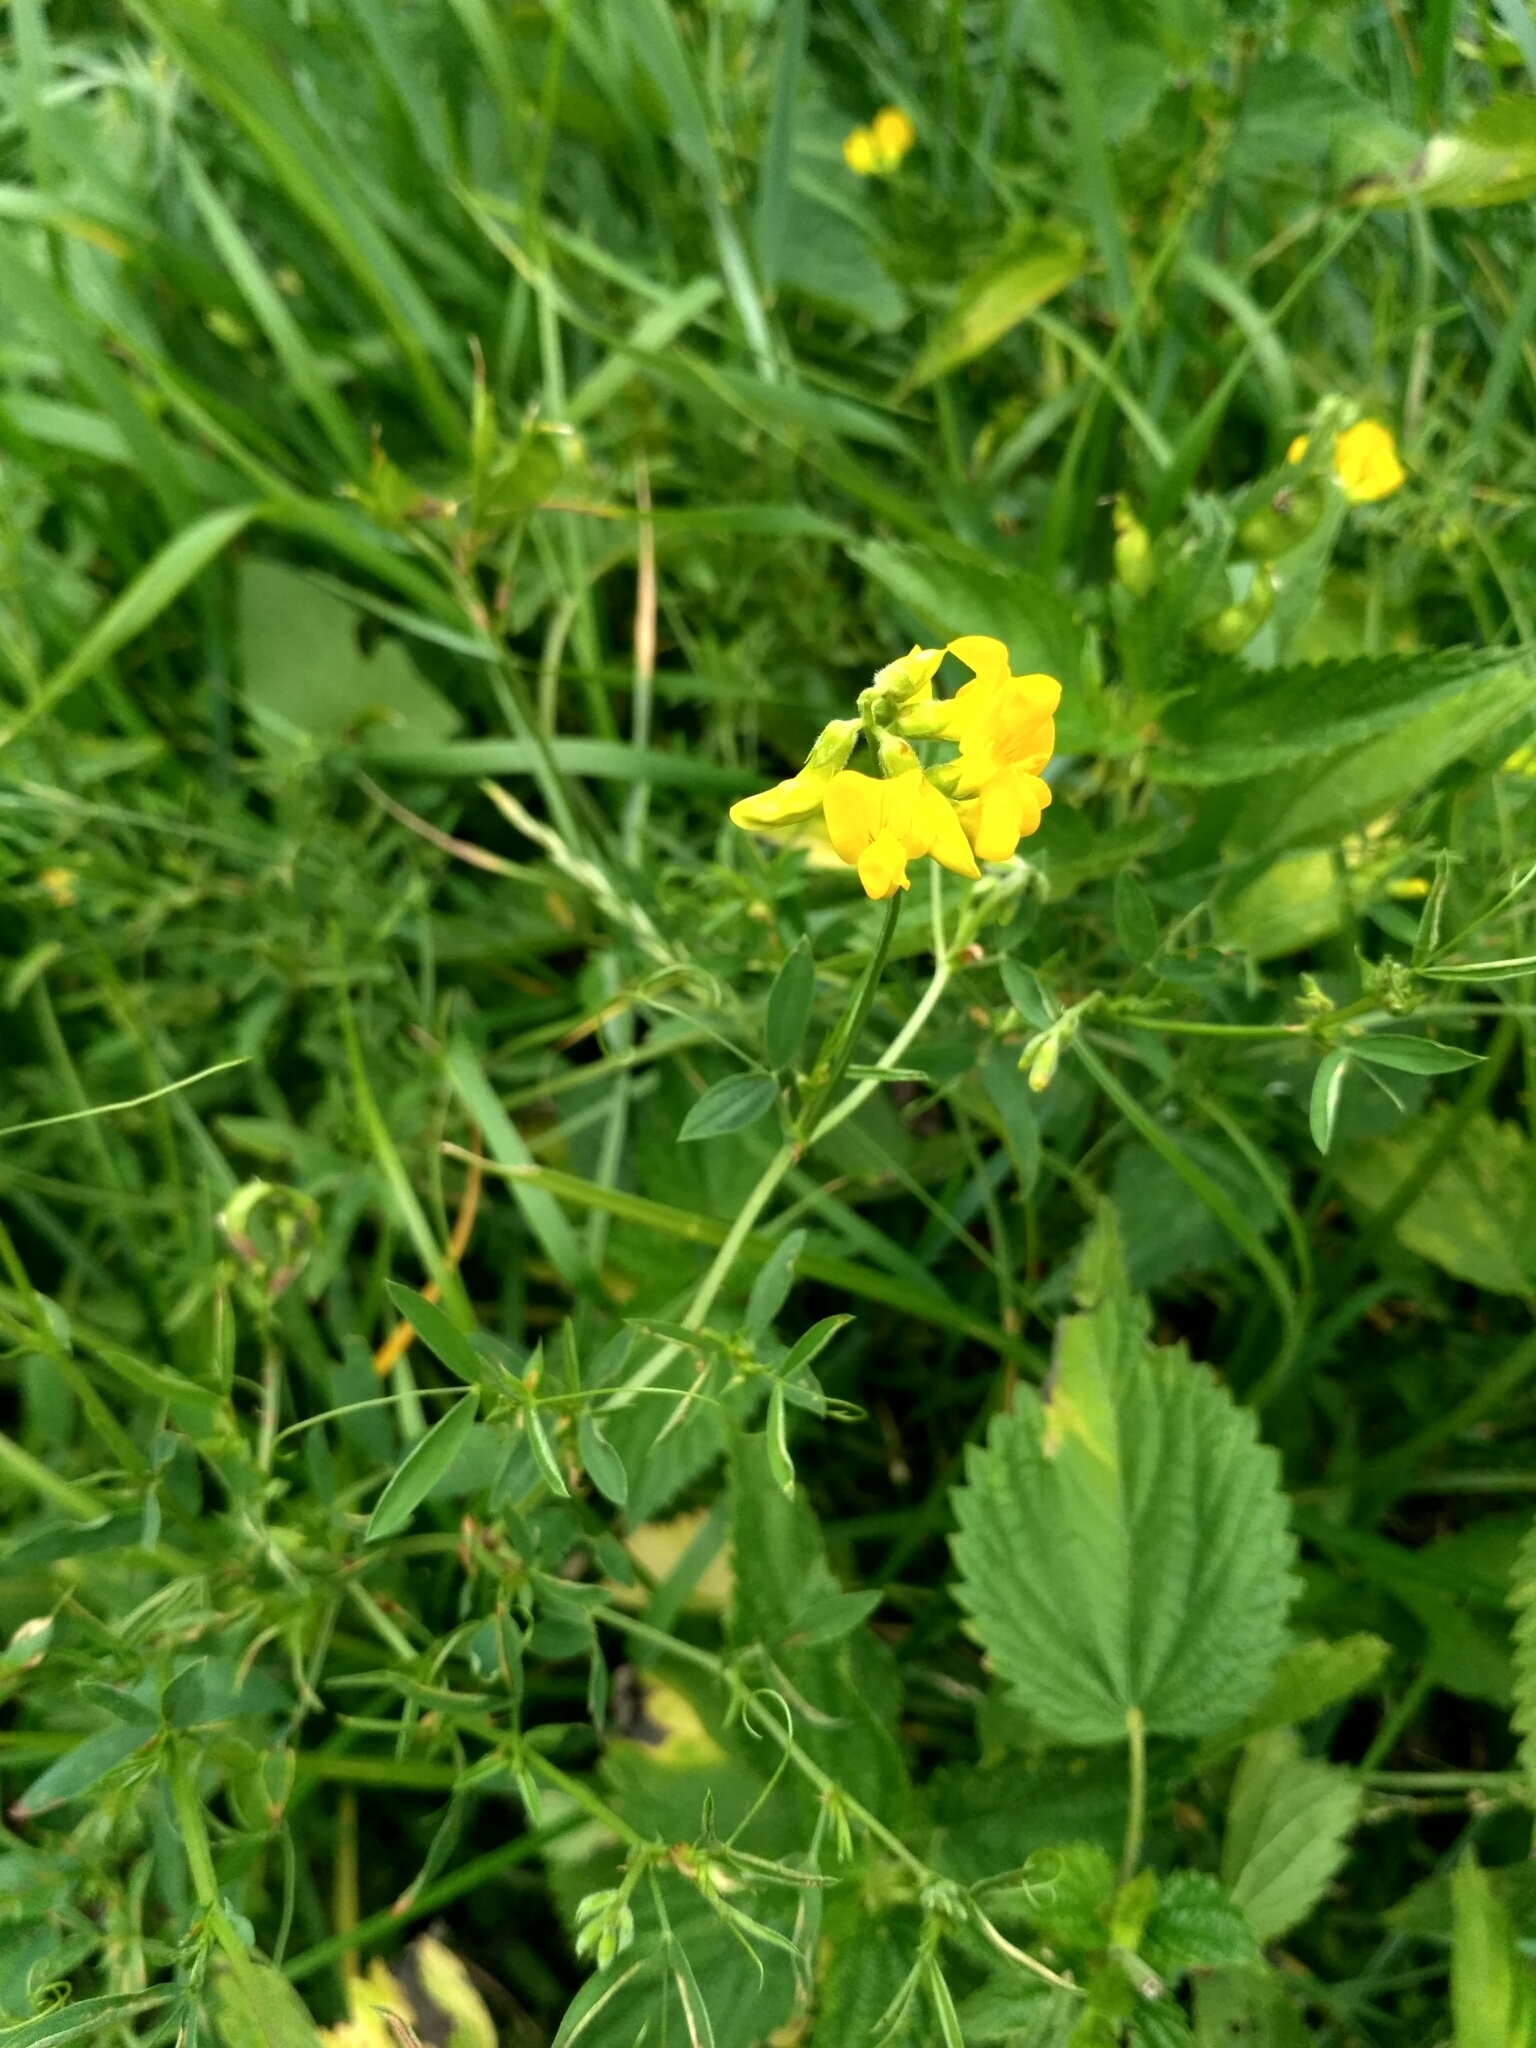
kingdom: Plantae
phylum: Tracheophyta
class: Magnoliopsida
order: Fabales
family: Fabaceae
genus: Lotus
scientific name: Lotus corniculatus
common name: Common bird's-foot-trefoil
